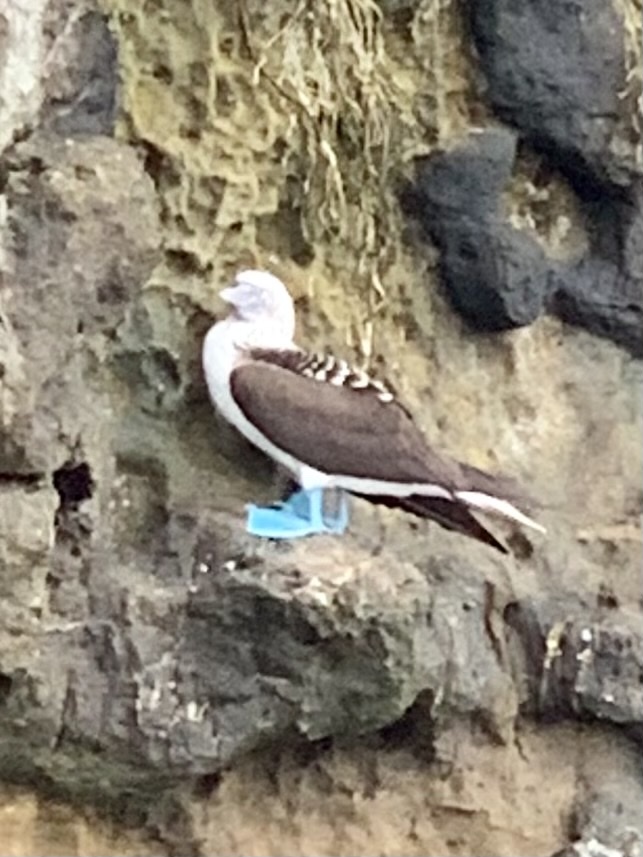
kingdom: Animalia
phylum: Chordata
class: Aves
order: Suliformes
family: Sulidae
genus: Sula
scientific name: Sula nebouxii
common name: Blue-footed booby
